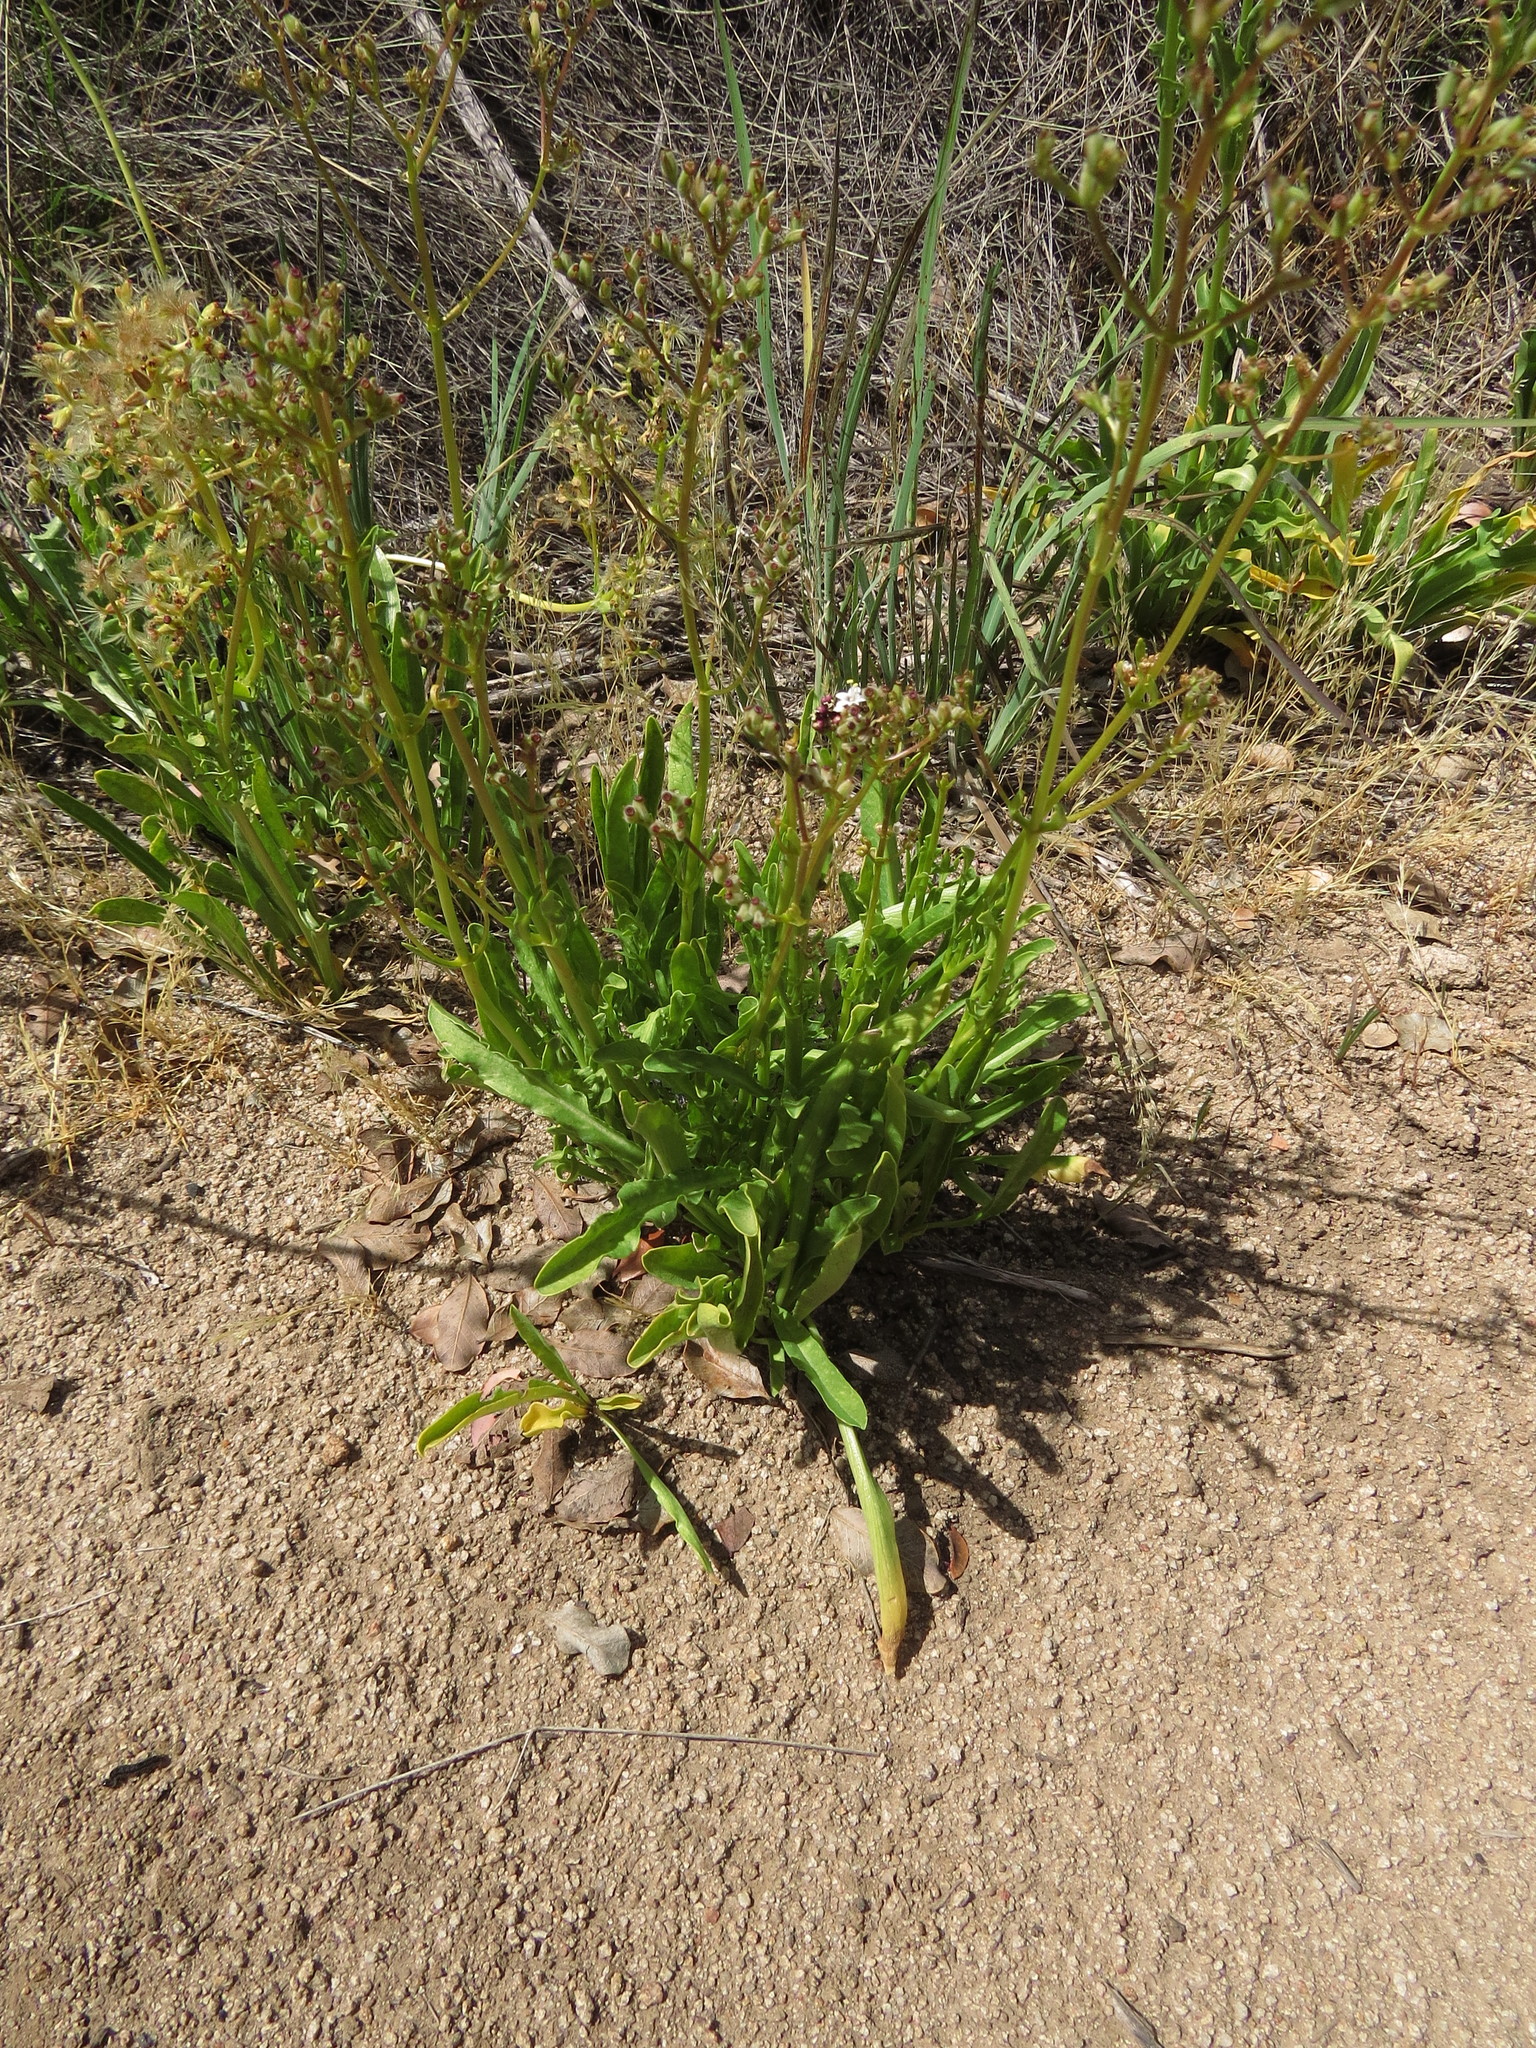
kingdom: Plantae
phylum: Tracheophyta
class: Magnoliopsida
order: Dipsacales
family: Caprifoliaceae
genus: Valeriana
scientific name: Valeriana papilla
